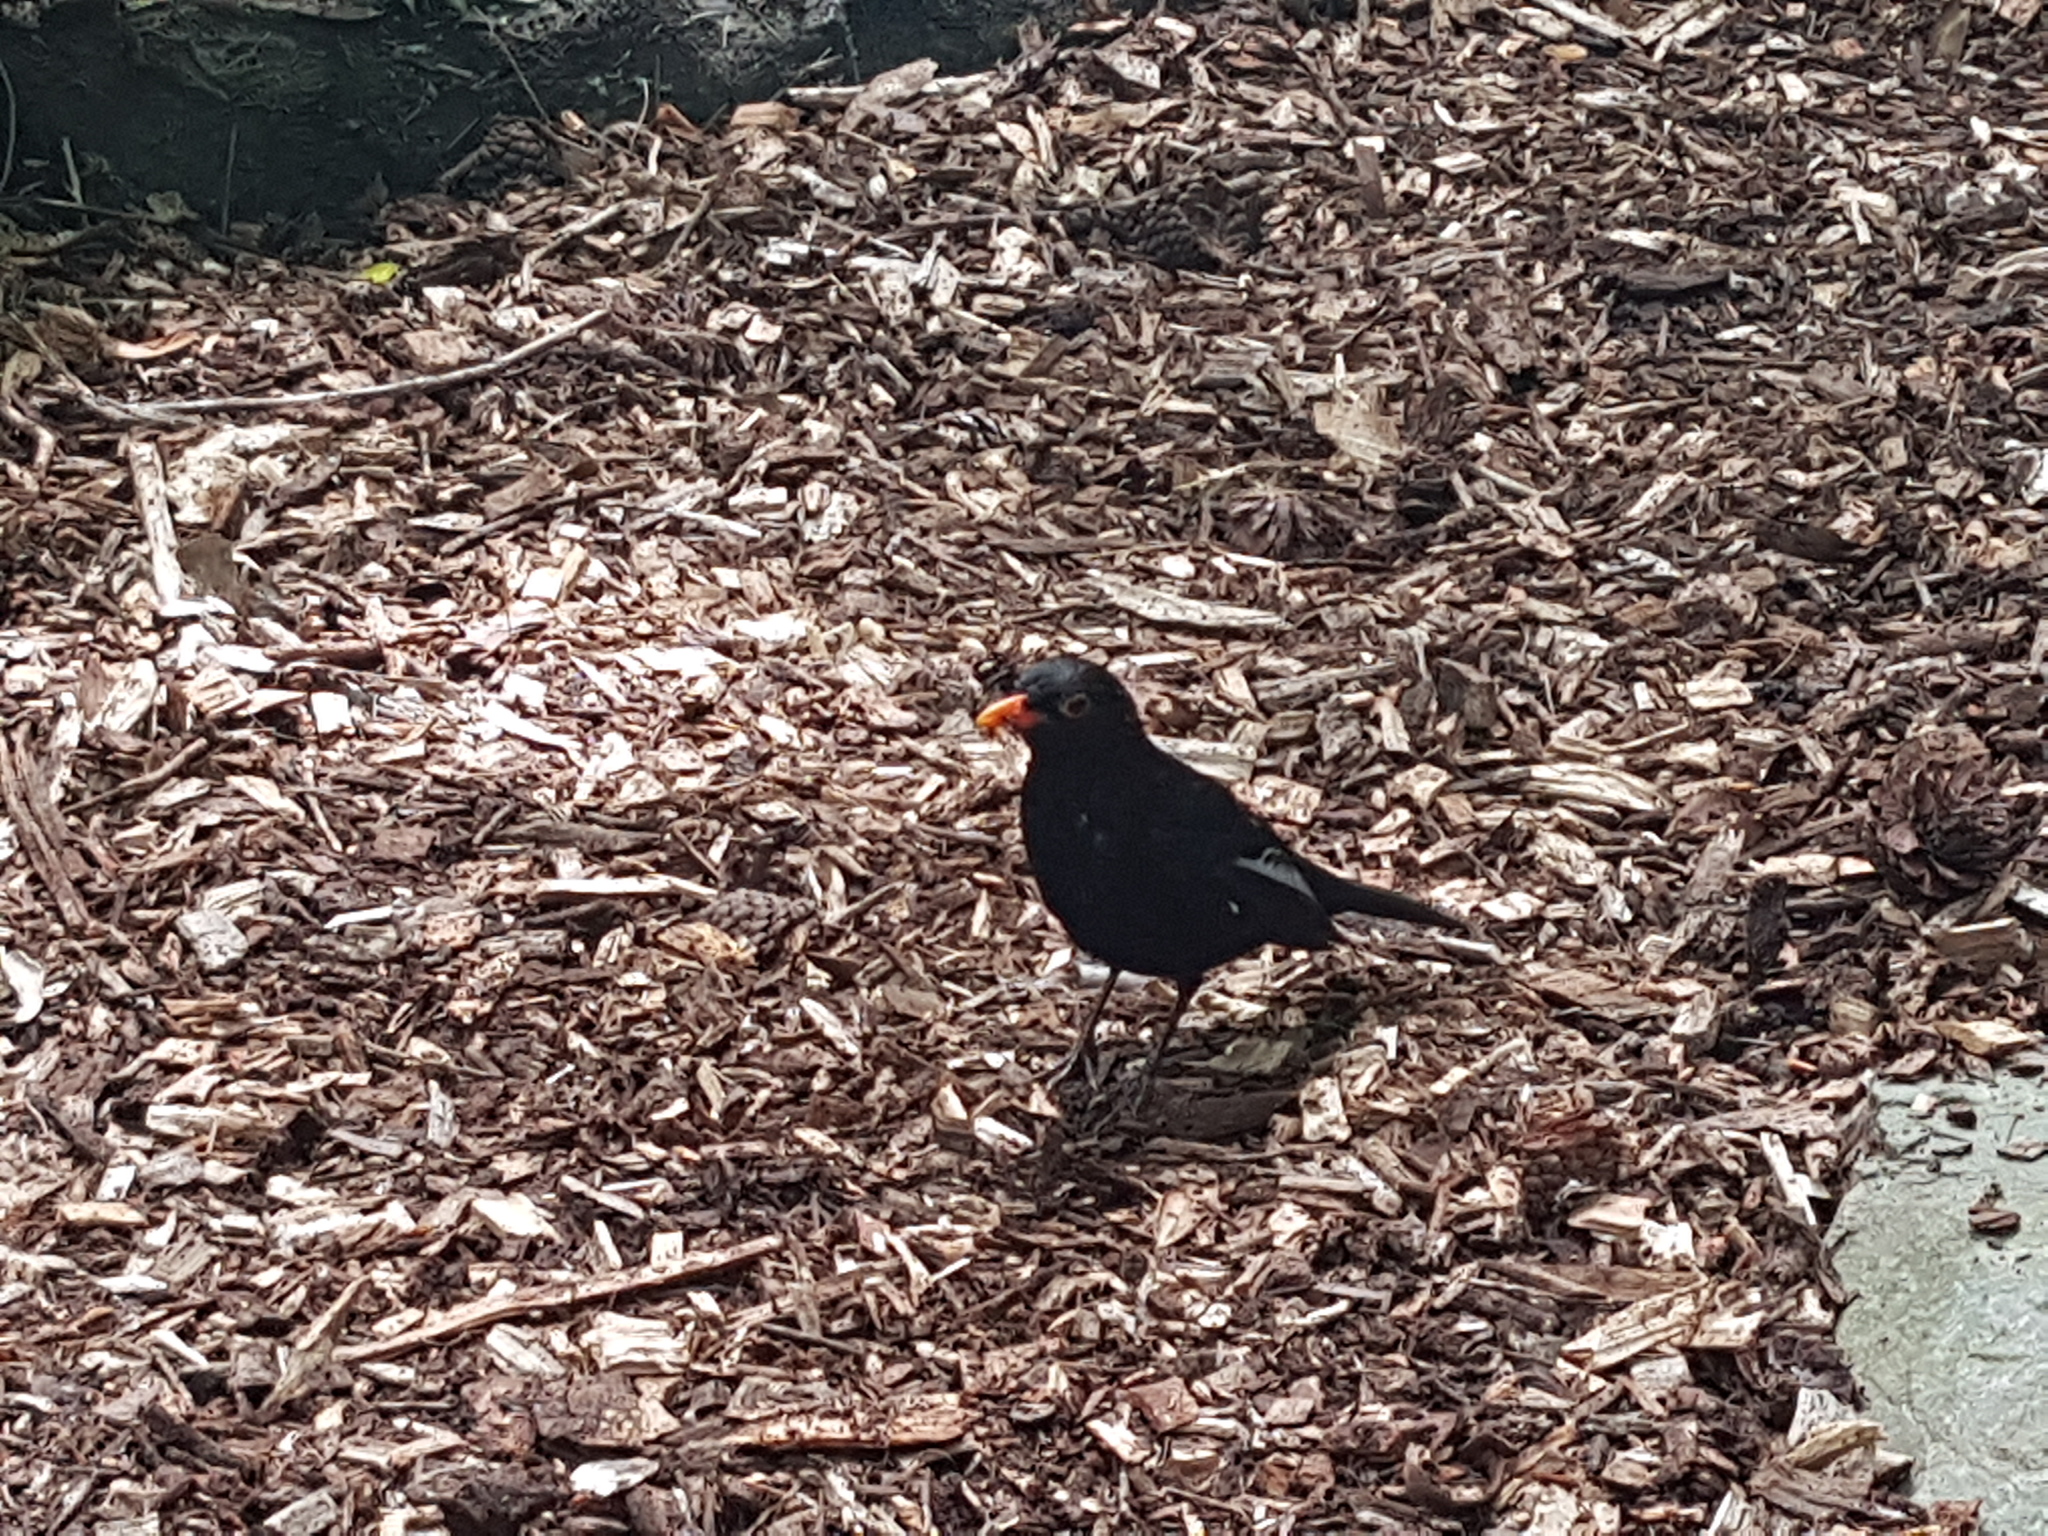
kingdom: Animalia
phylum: Chordata
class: Aves
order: Passeriformes
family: Turdidae
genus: Turdus
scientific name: Turdus merula
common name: Common blackbird
